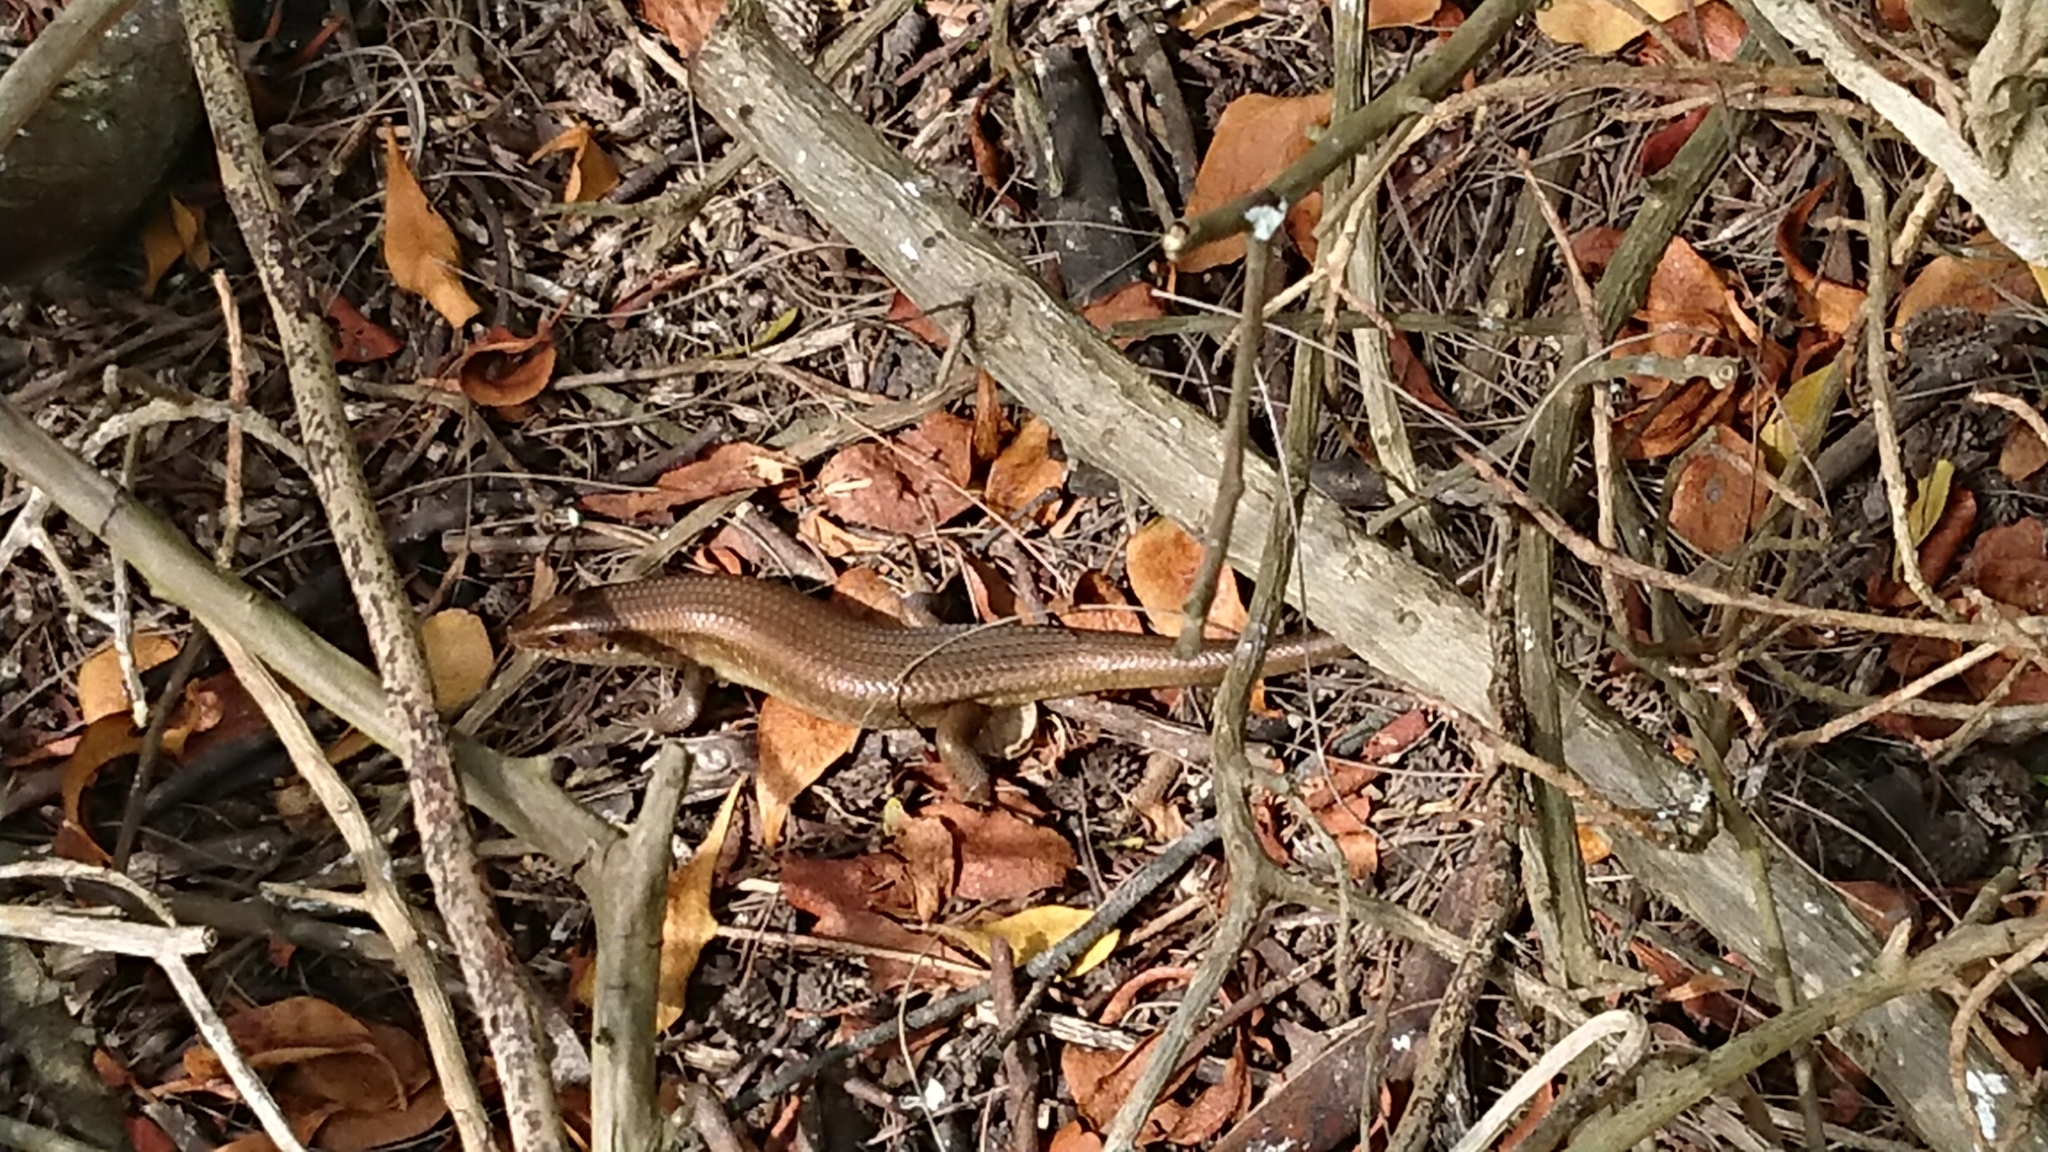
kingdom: Animalia
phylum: Chordata
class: Squamata
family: Scincidae
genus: Eutropis
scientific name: Eutropis multifasciata
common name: Common mabuya
